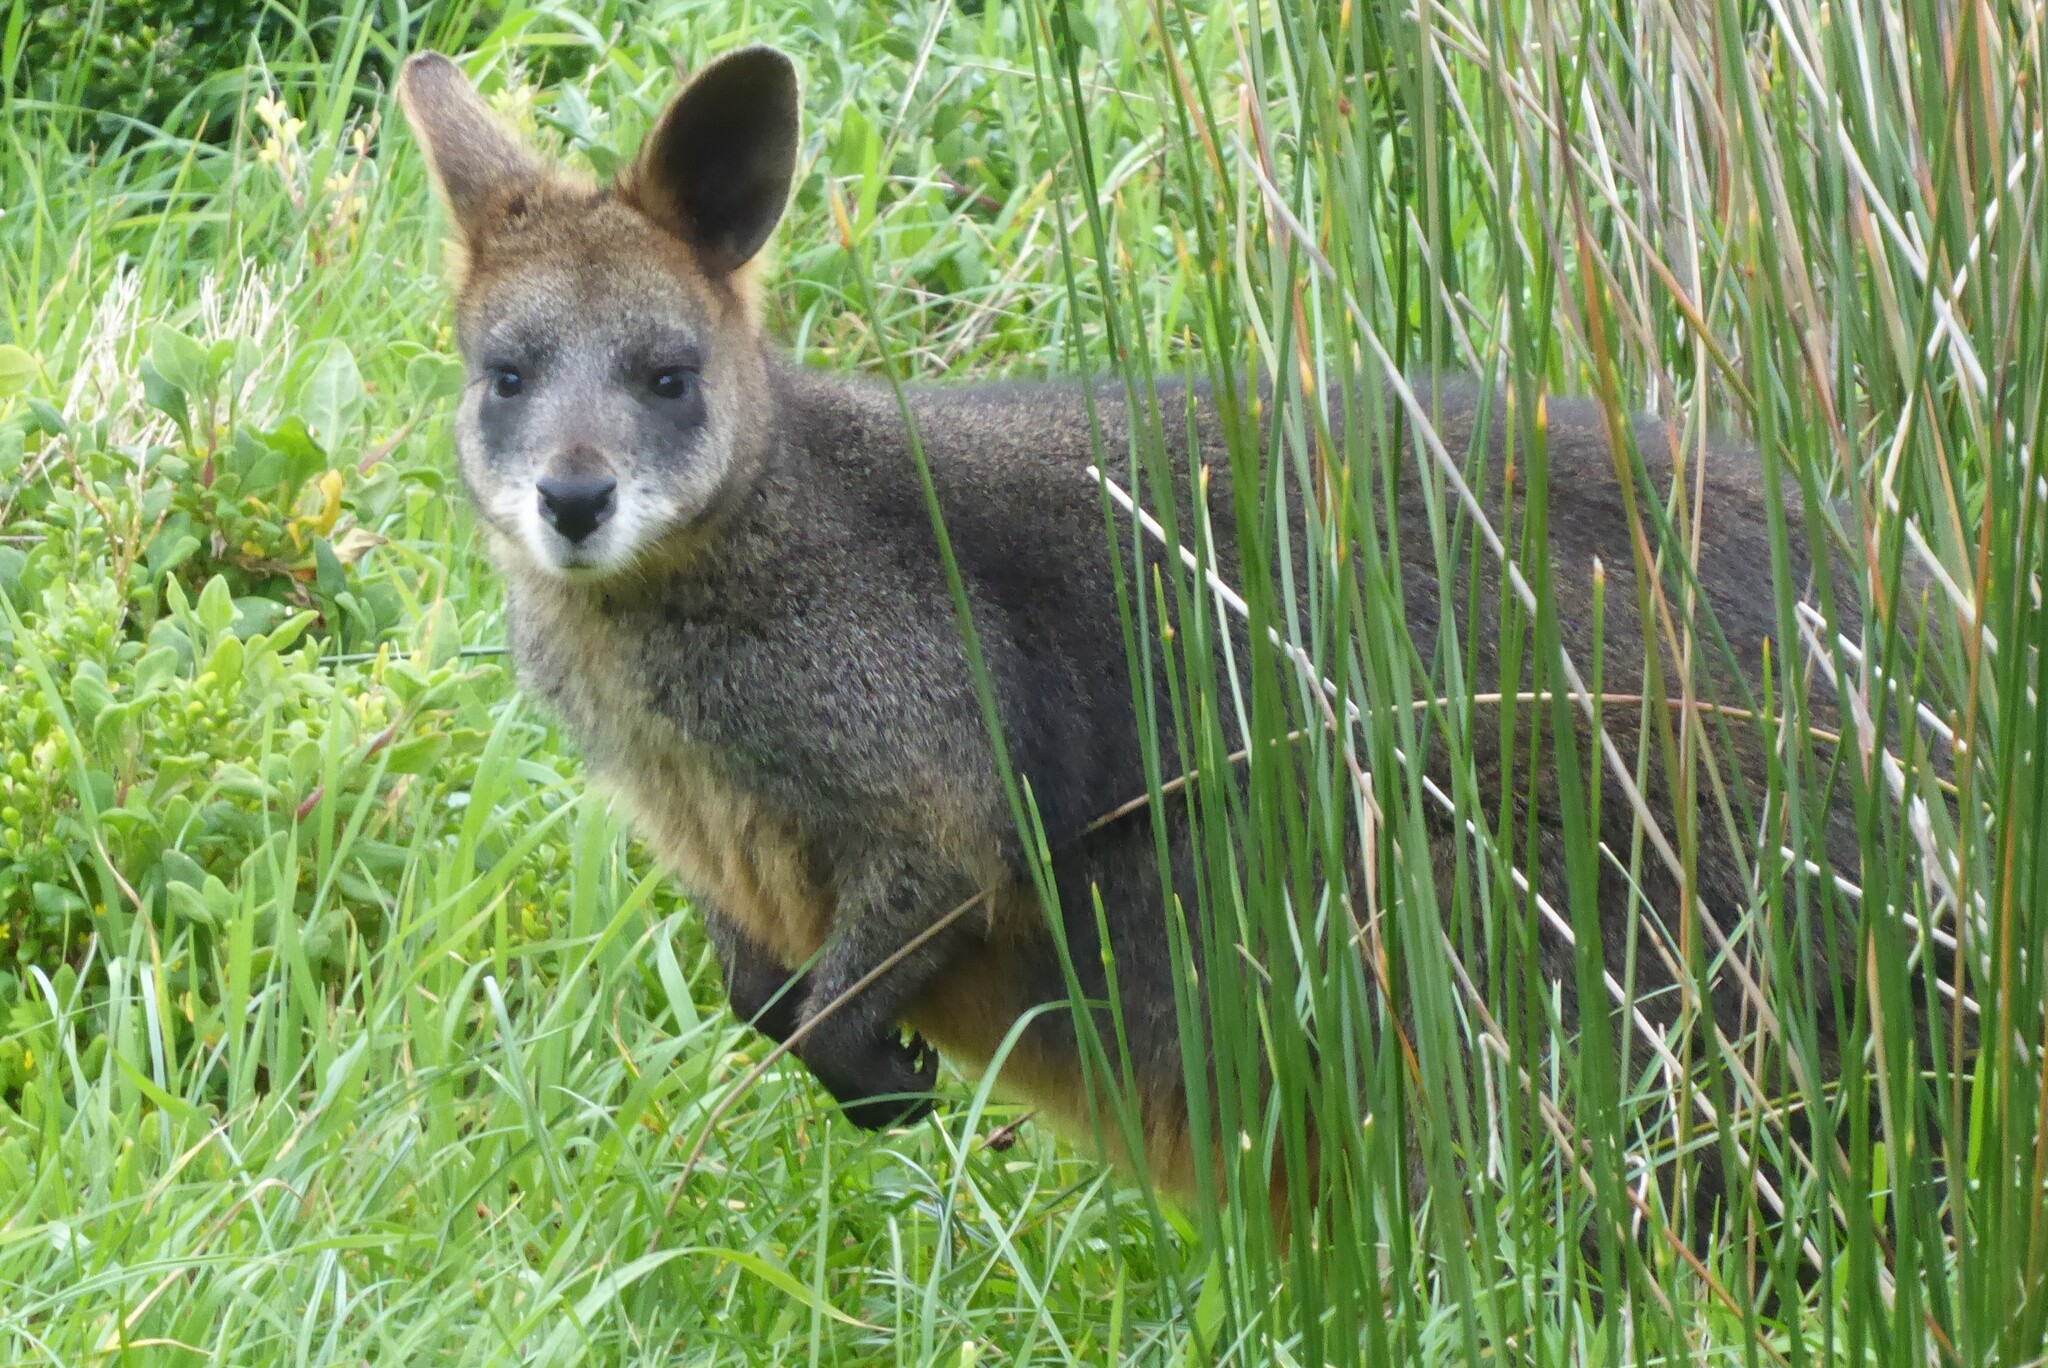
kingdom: Animalia
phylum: Chordata
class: Mammalia
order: Diprotodontia
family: Macropodidae
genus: Wallabia
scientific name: Wallabia bicolor
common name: Swamp wallaby
